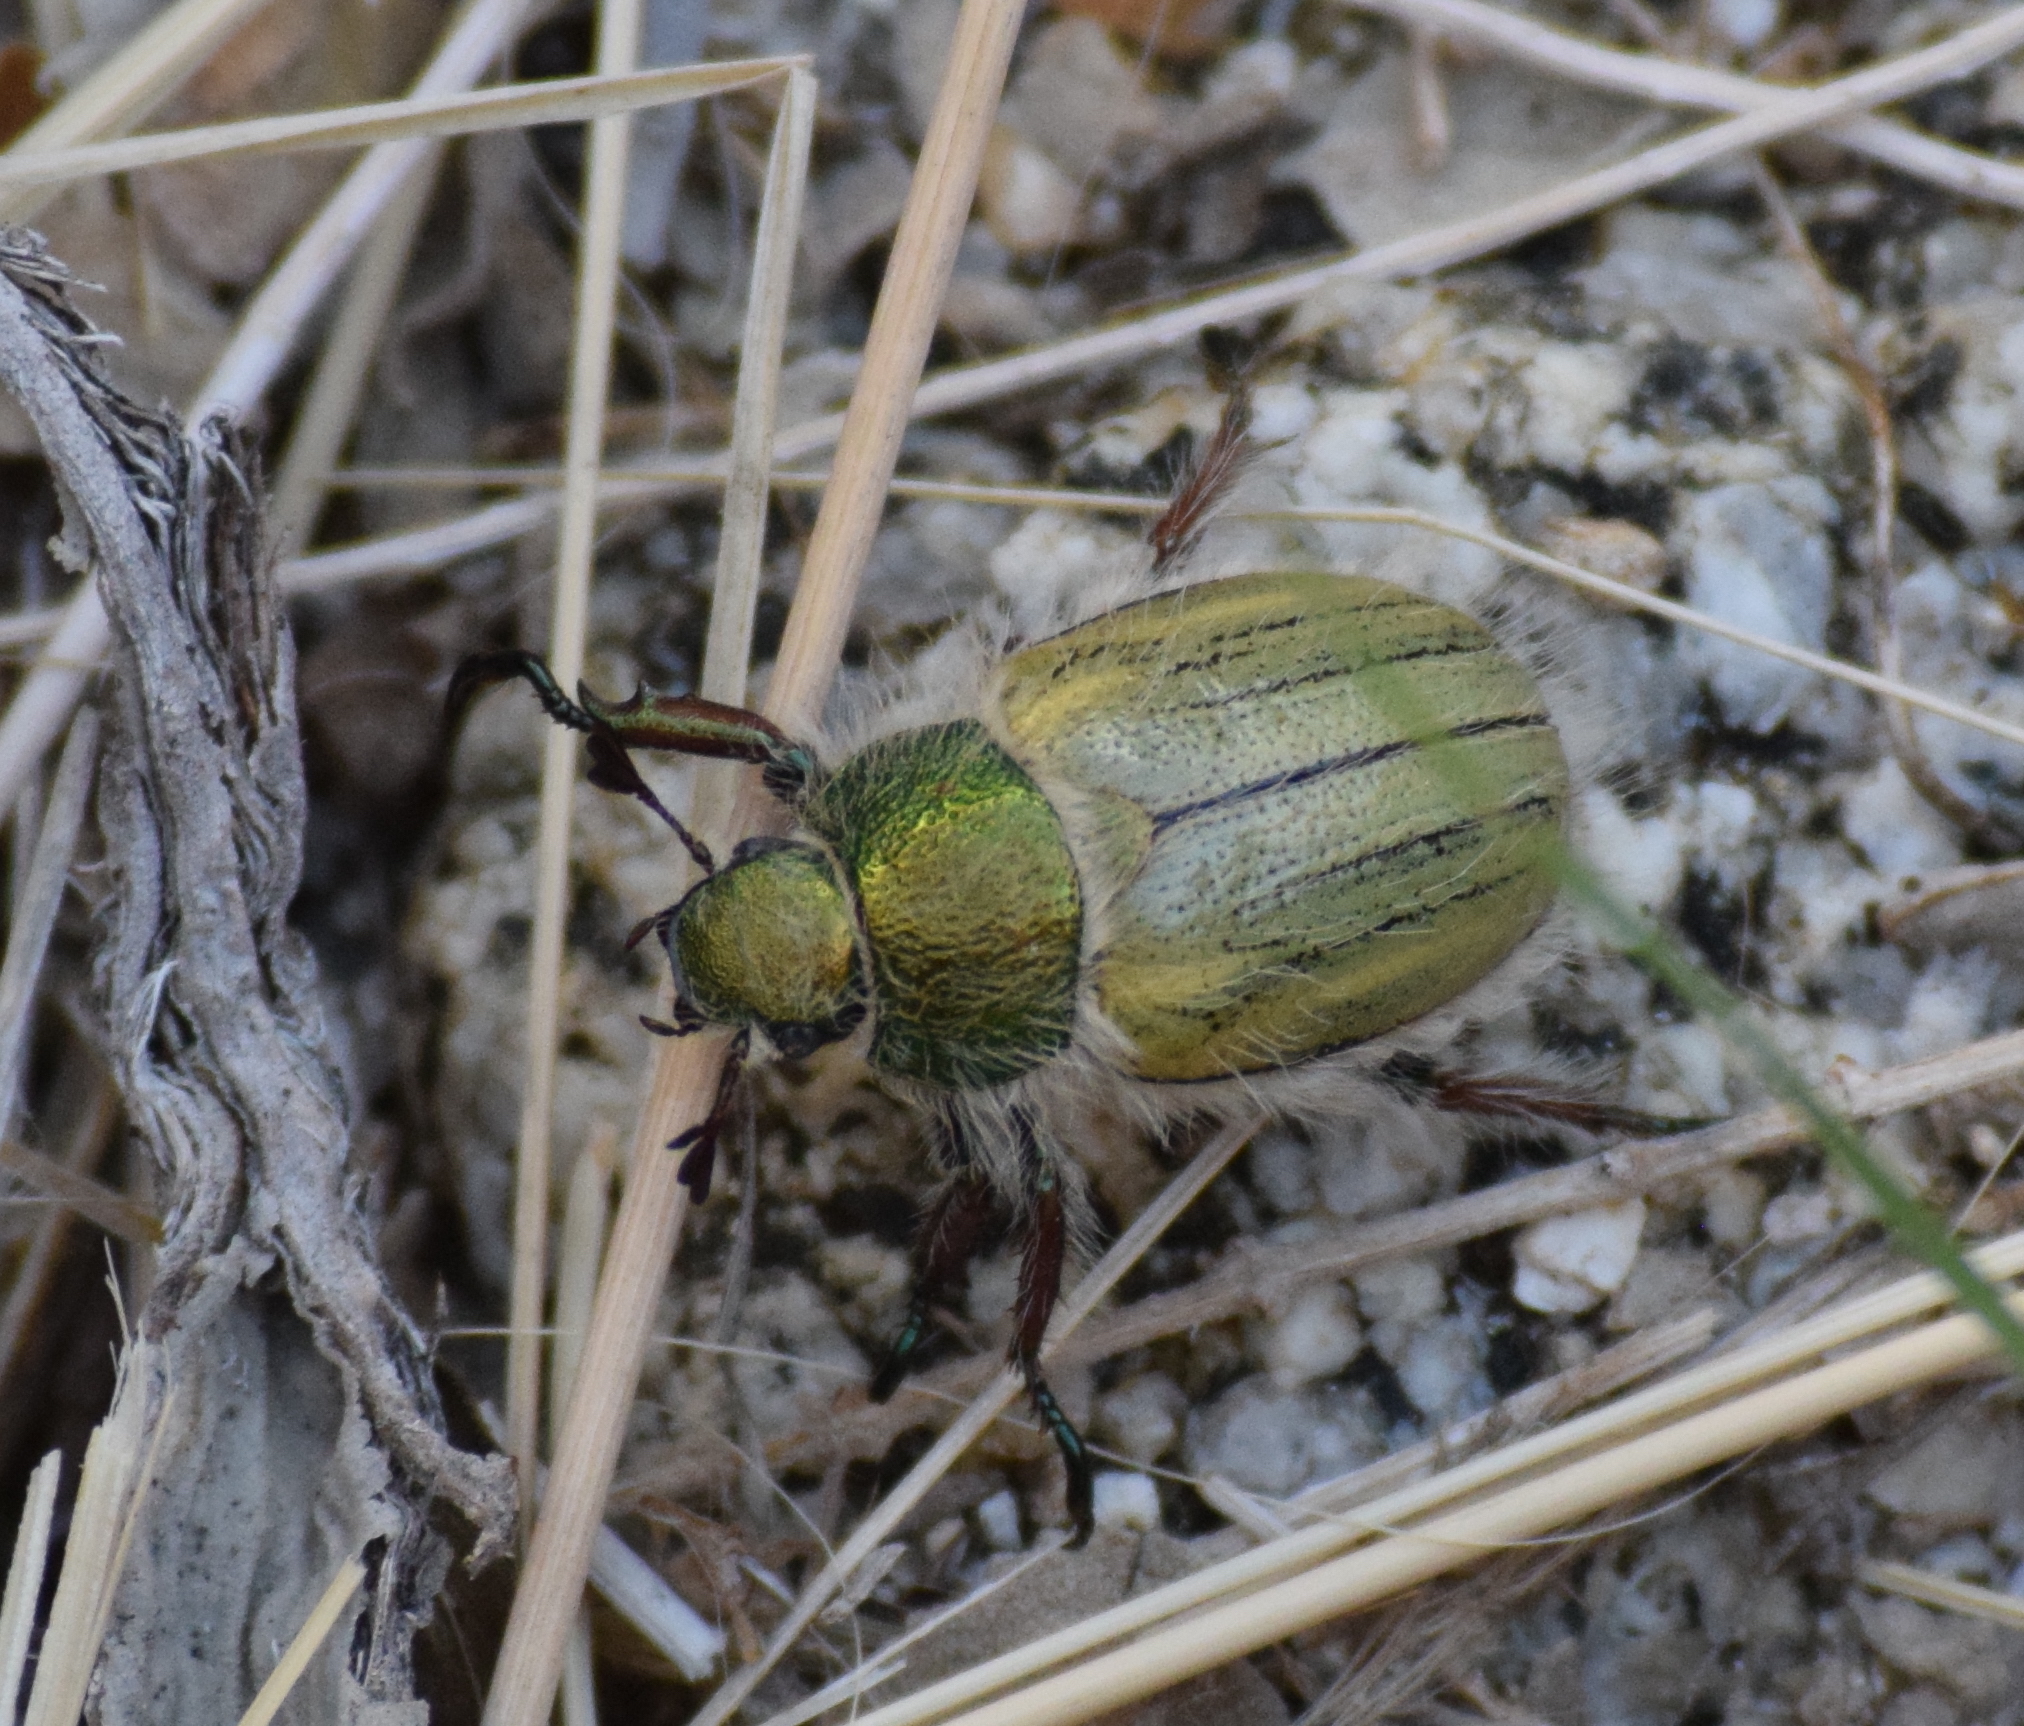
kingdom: Animalia
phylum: Arthropoda
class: Insecta
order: Coleoptera
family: Scarabaeidae
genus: Paracotalpa
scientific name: Paracotalpa puncticollis
